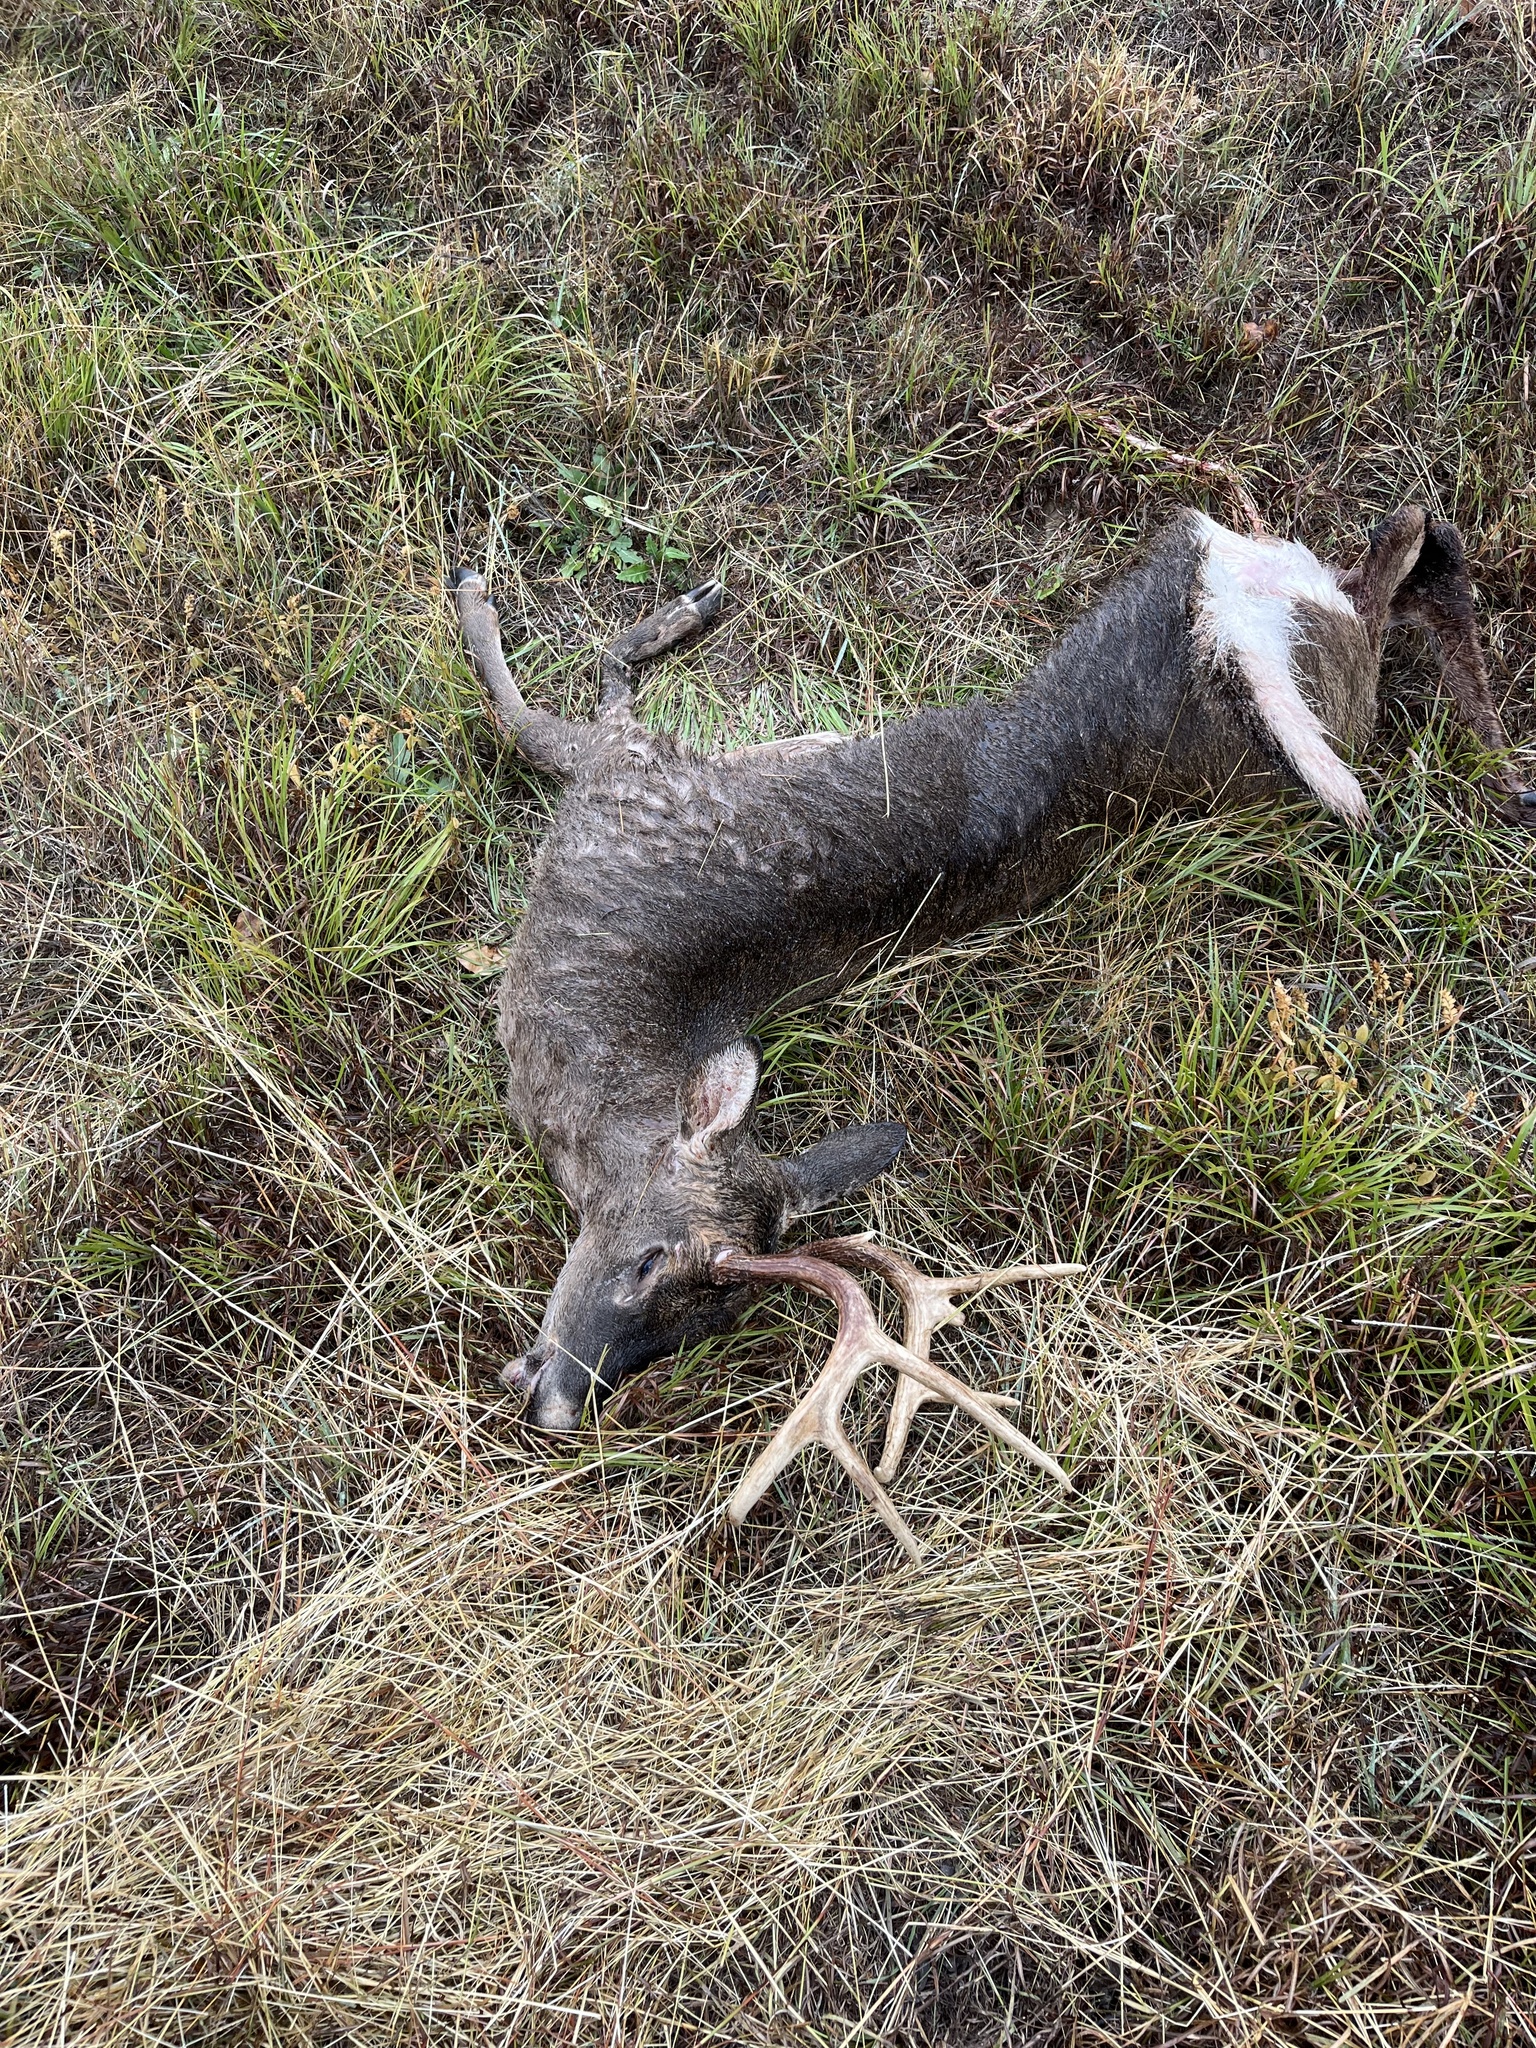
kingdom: Animalia
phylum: Chordata
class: Mammalia
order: Artiodactyla
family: Cervidae
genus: Odocoileus
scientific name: Odocoileus virginianus
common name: White-tailed deer
